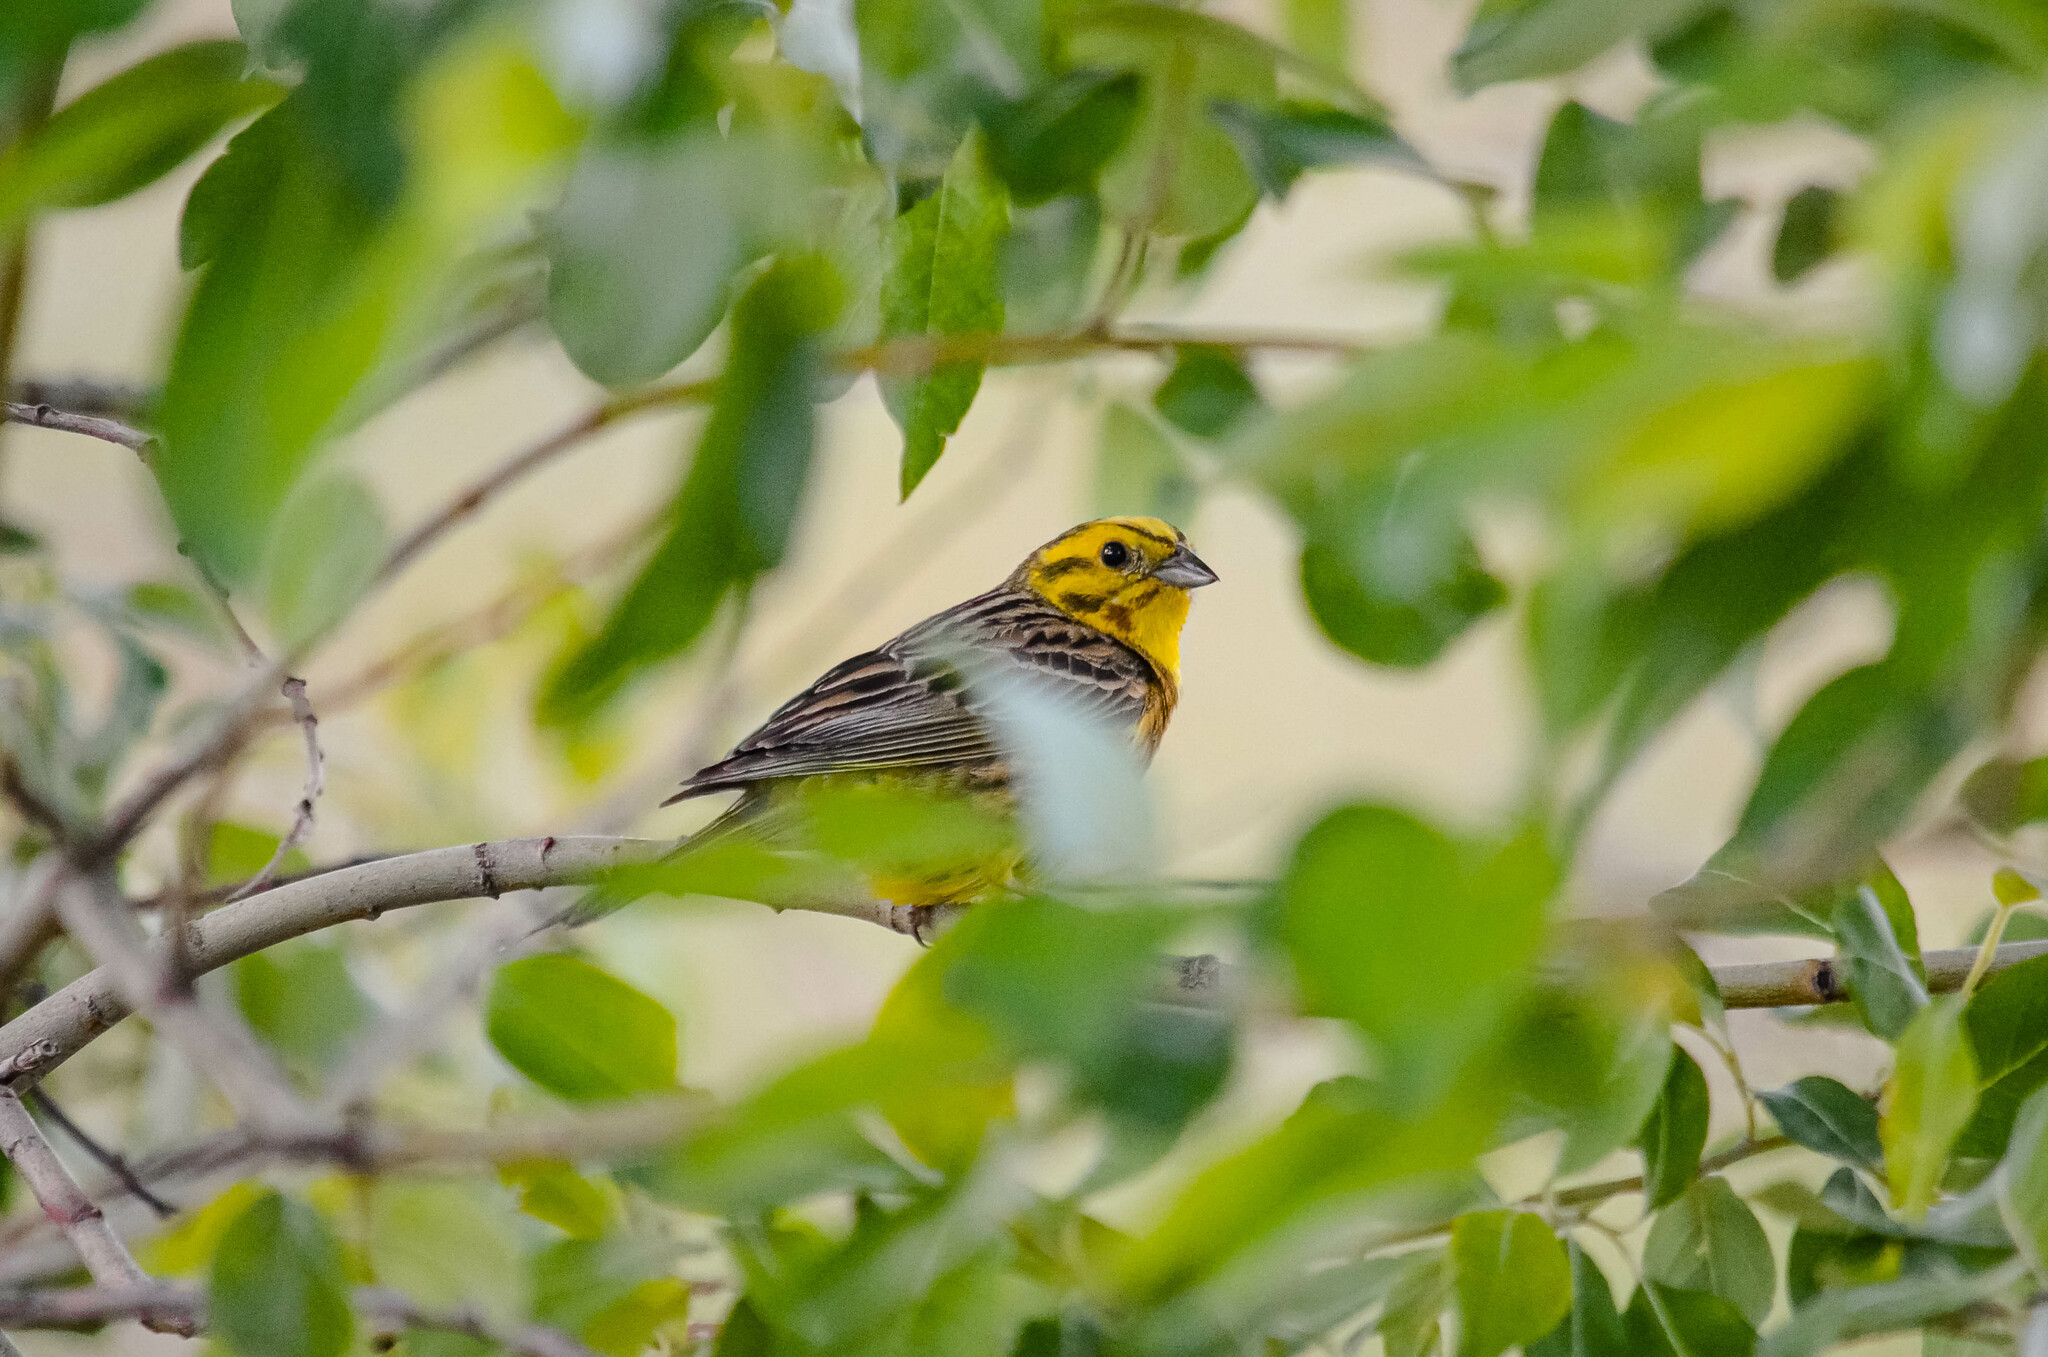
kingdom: Animalia
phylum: Chordata
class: Aves
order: Passeriformes
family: Emberizidae
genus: Emberiza
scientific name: Emberiza citrinella
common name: Yellowhammer
